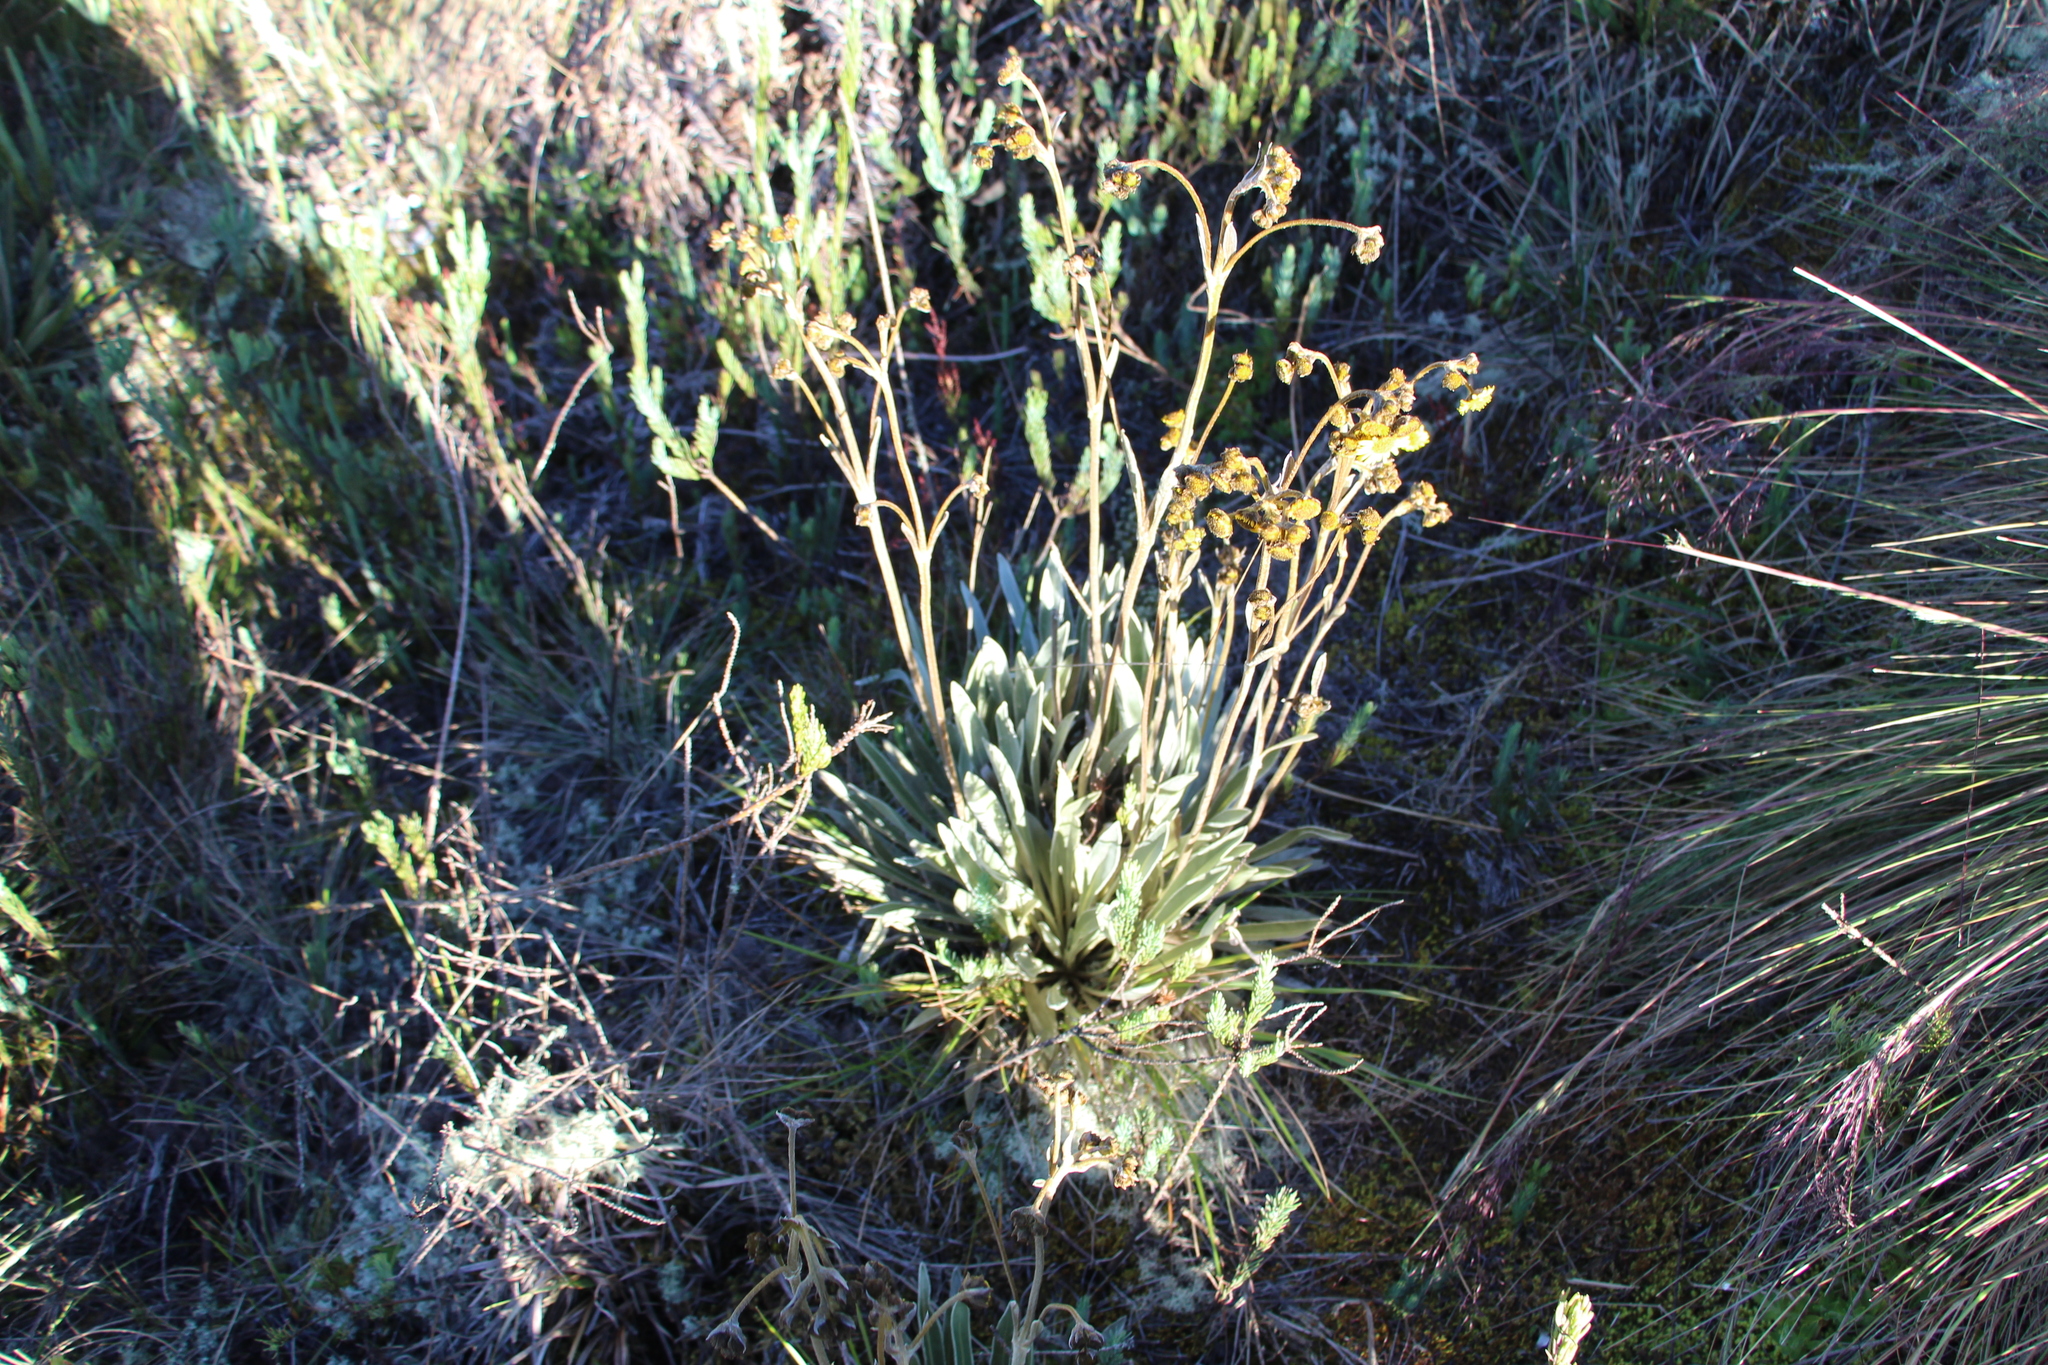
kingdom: Plantae
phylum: Tracheophyta
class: Magnoliopsida
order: Asterales
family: Asteraceae
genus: Espeletia
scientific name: Espeletia boyacensis
